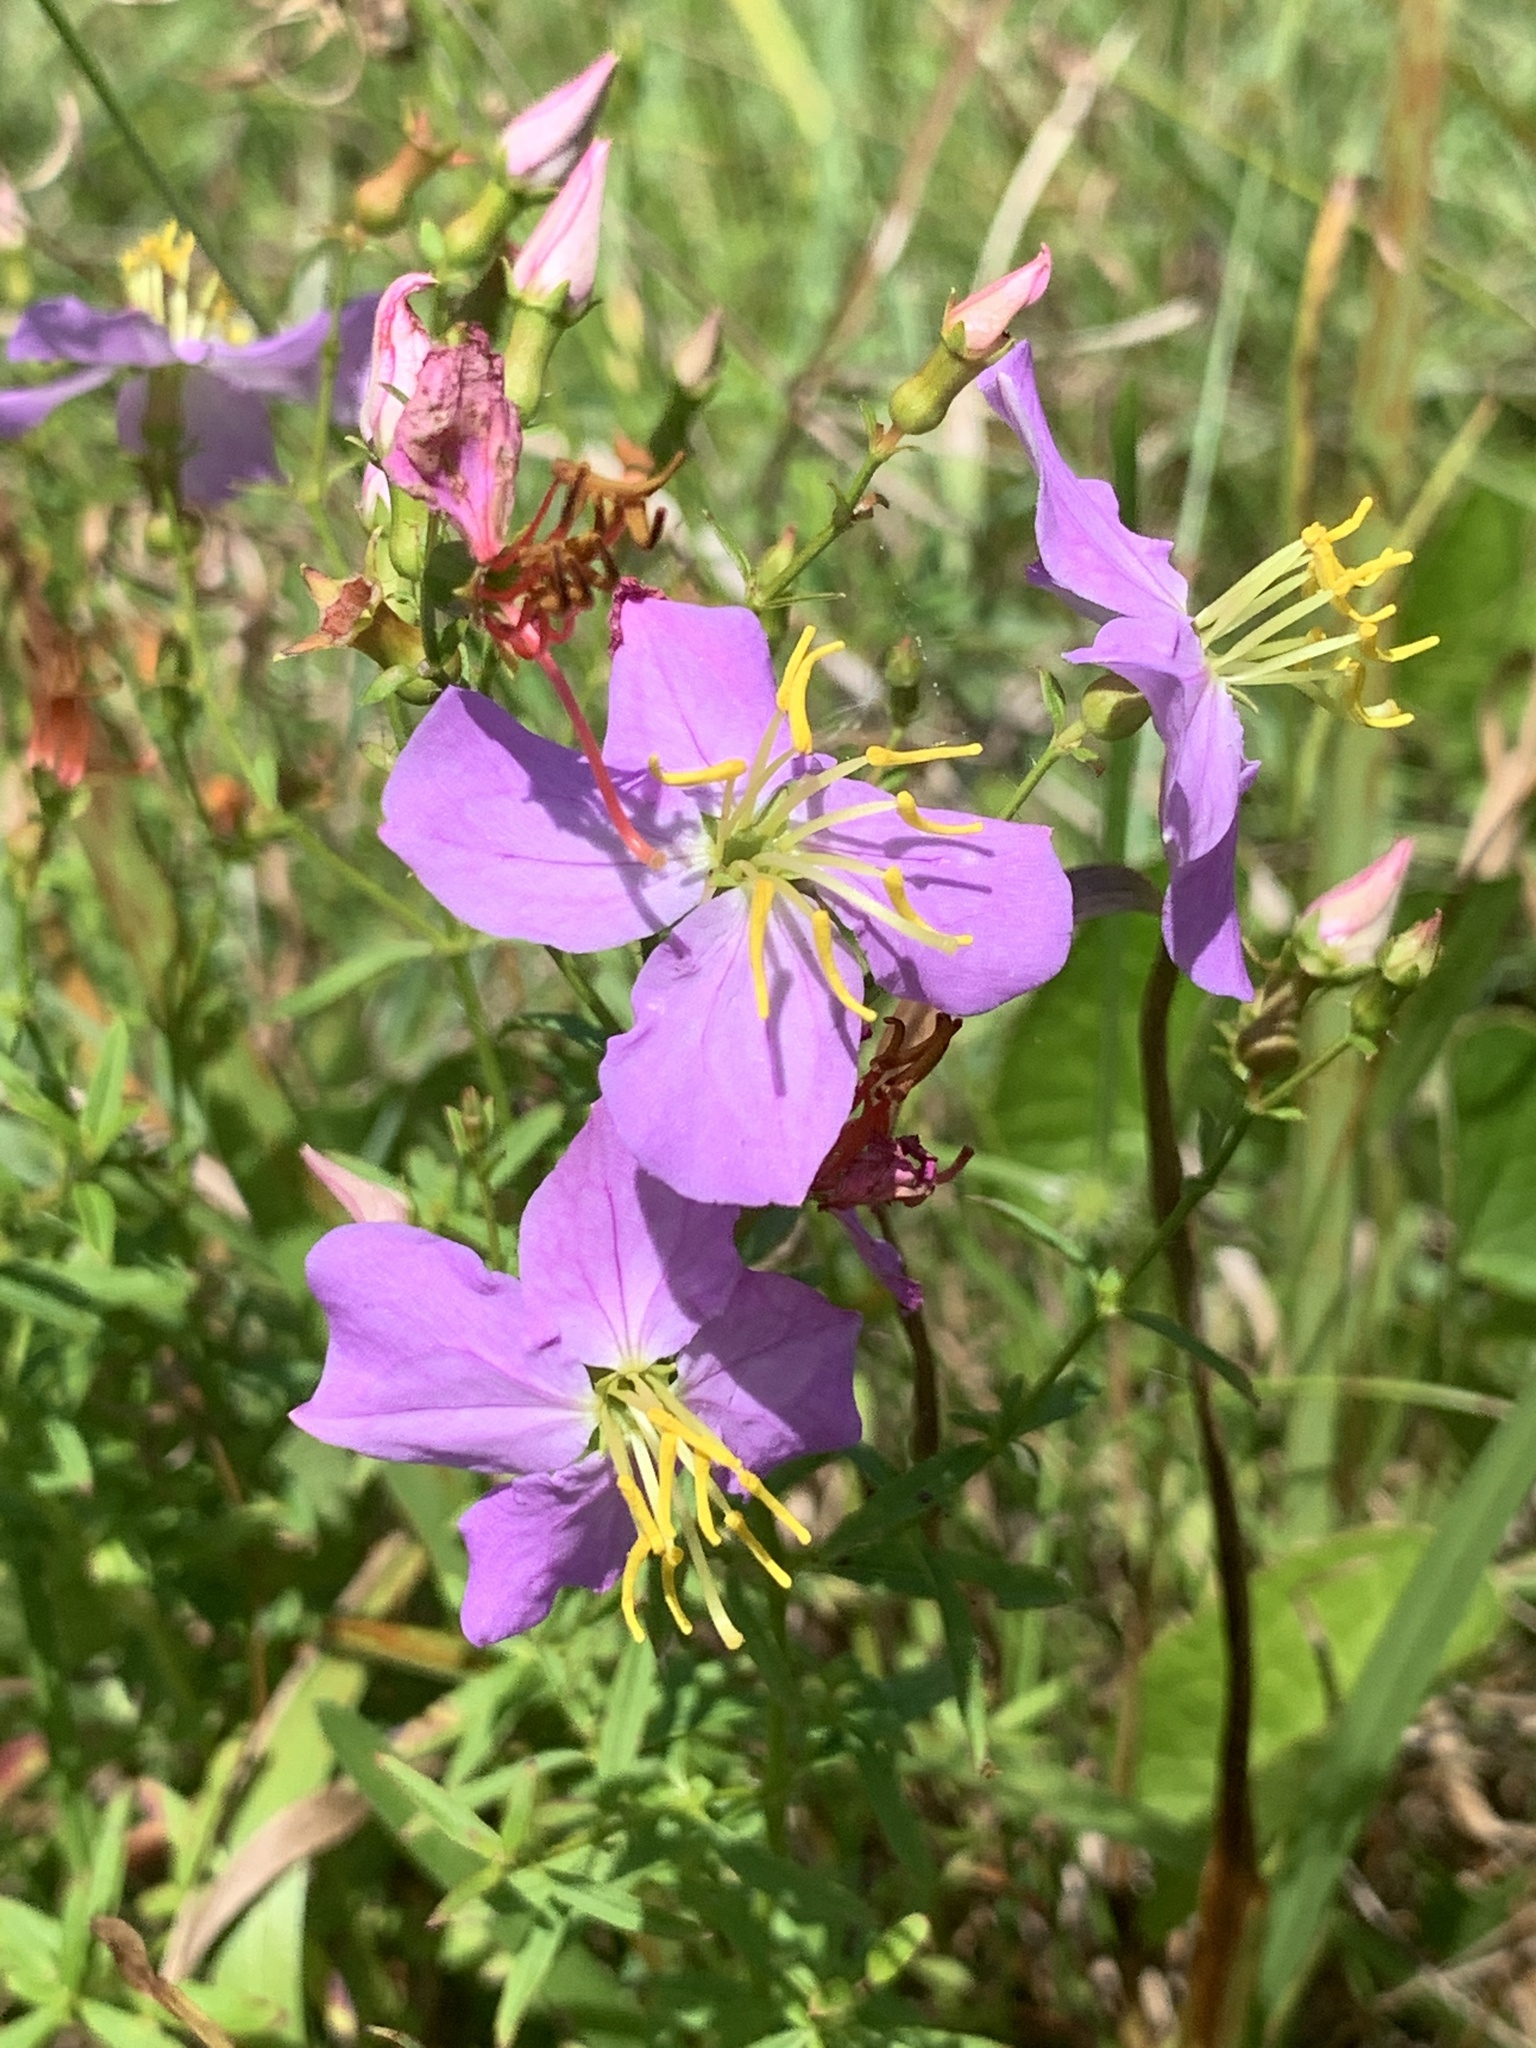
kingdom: Plantae
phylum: Tracheophyta
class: Magnoliopsida
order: Myrtales
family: Melastomataceae
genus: Rhexia
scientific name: Rhexia mariana
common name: Dull meadow-pitcher
